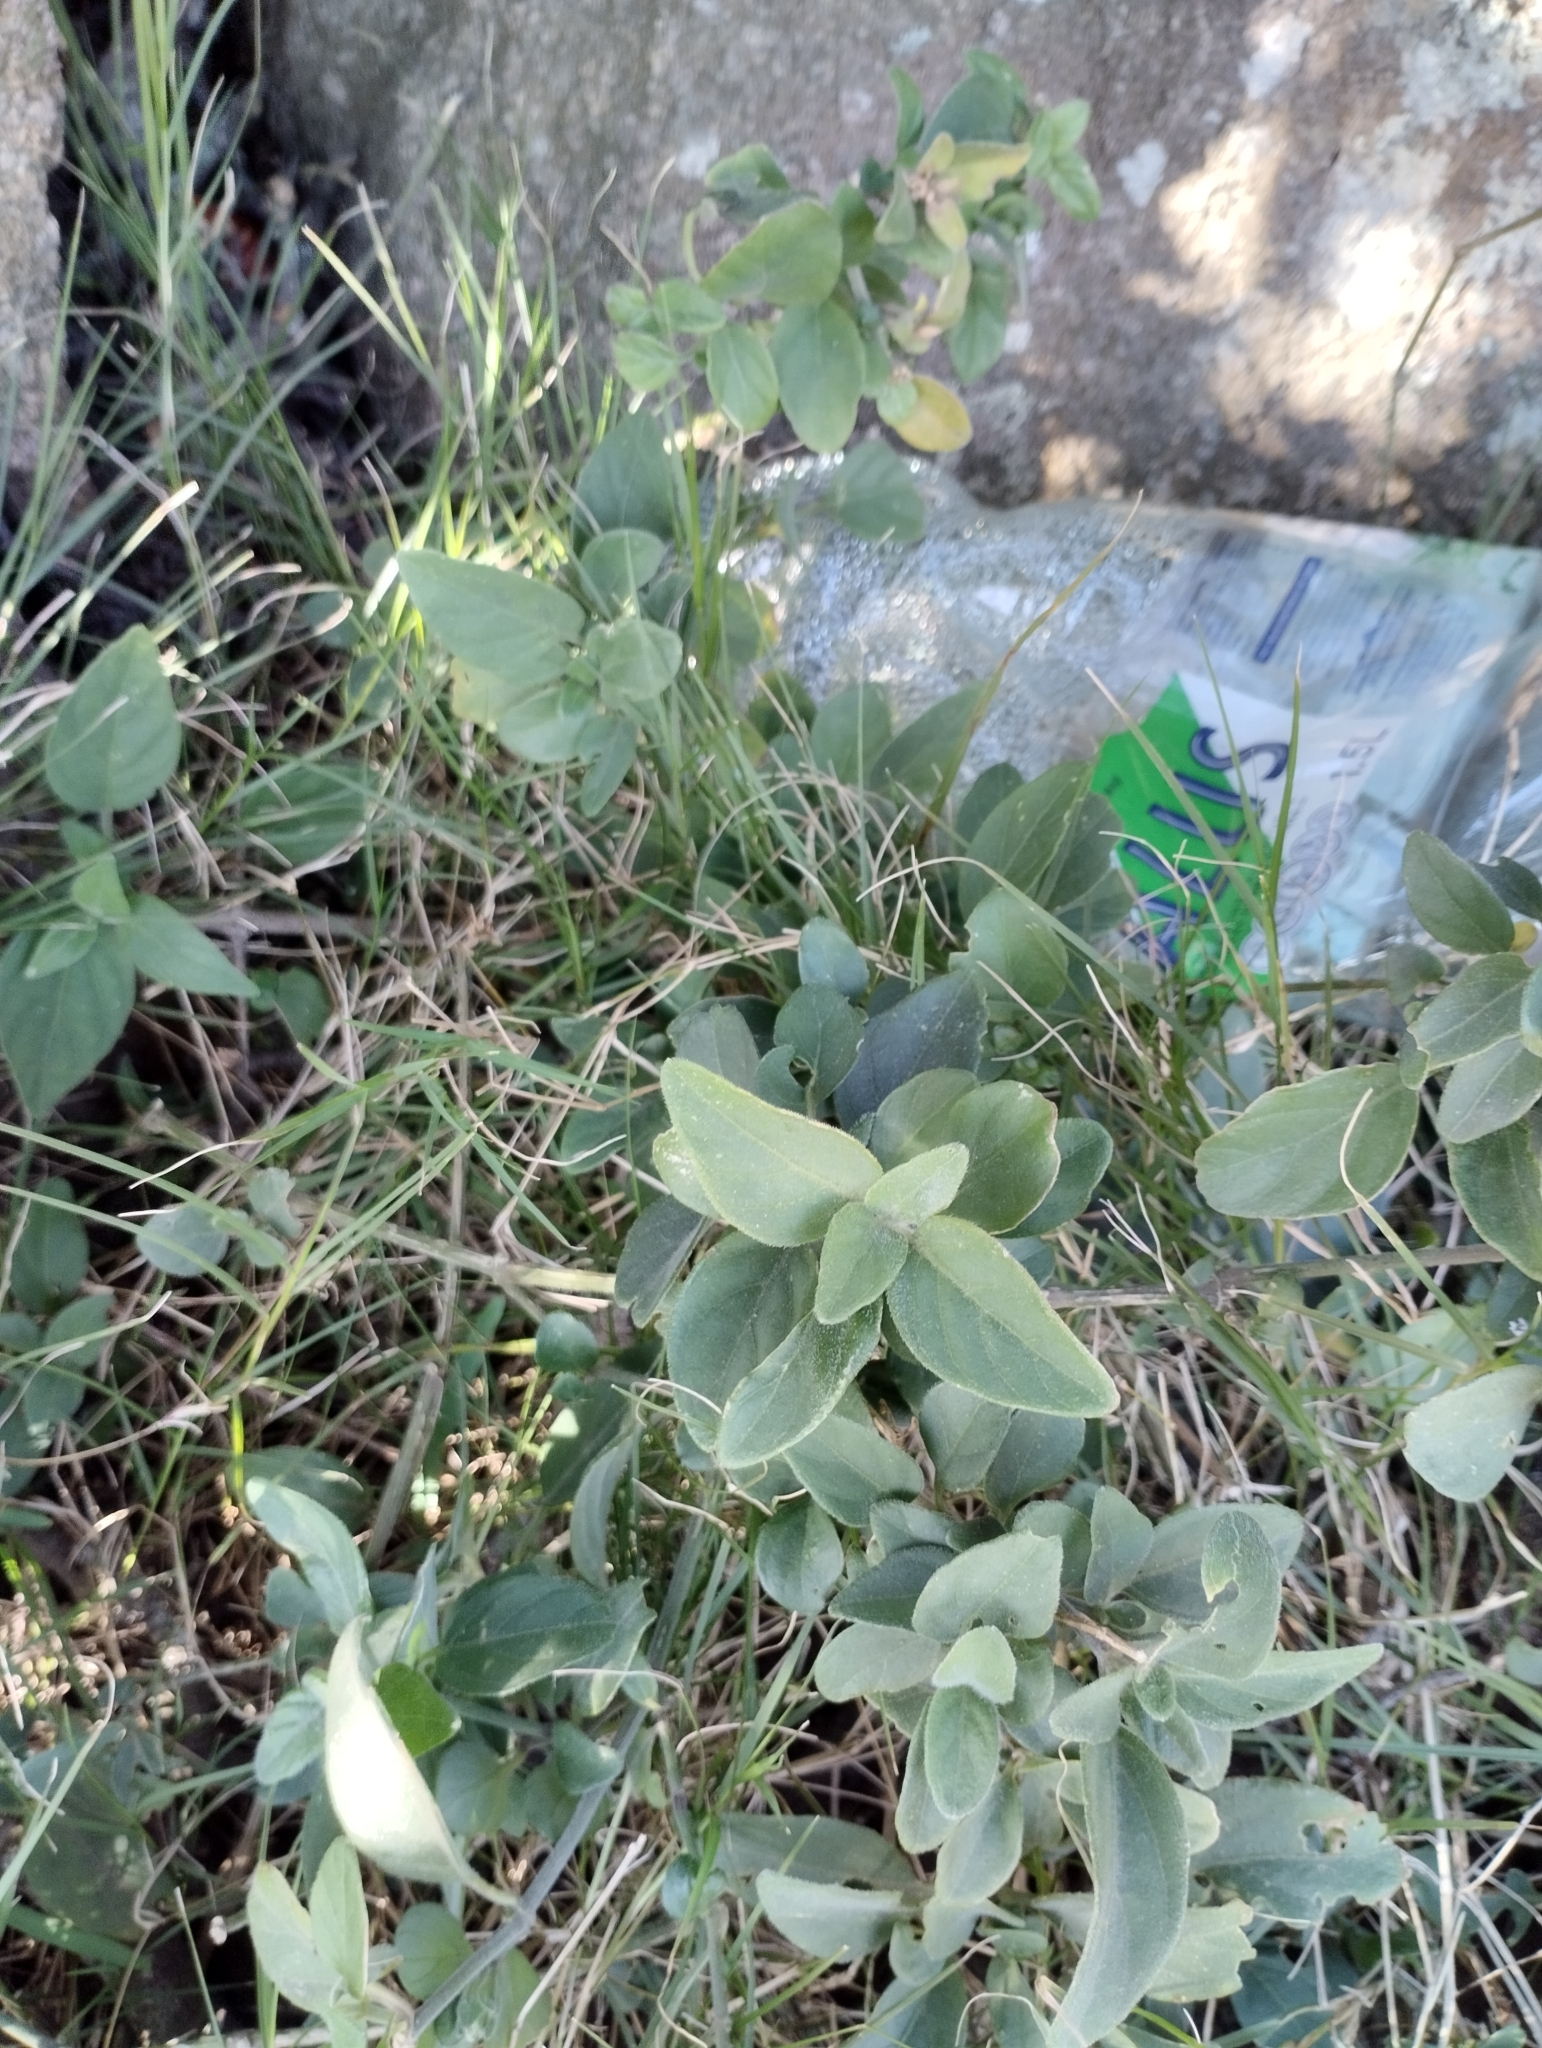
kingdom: Plantae
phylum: Tracheophyta
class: Magnoliopsida
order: Lamiales
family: Acanthaceae
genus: Dicliptera
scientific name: Dicliptera squarrosa
